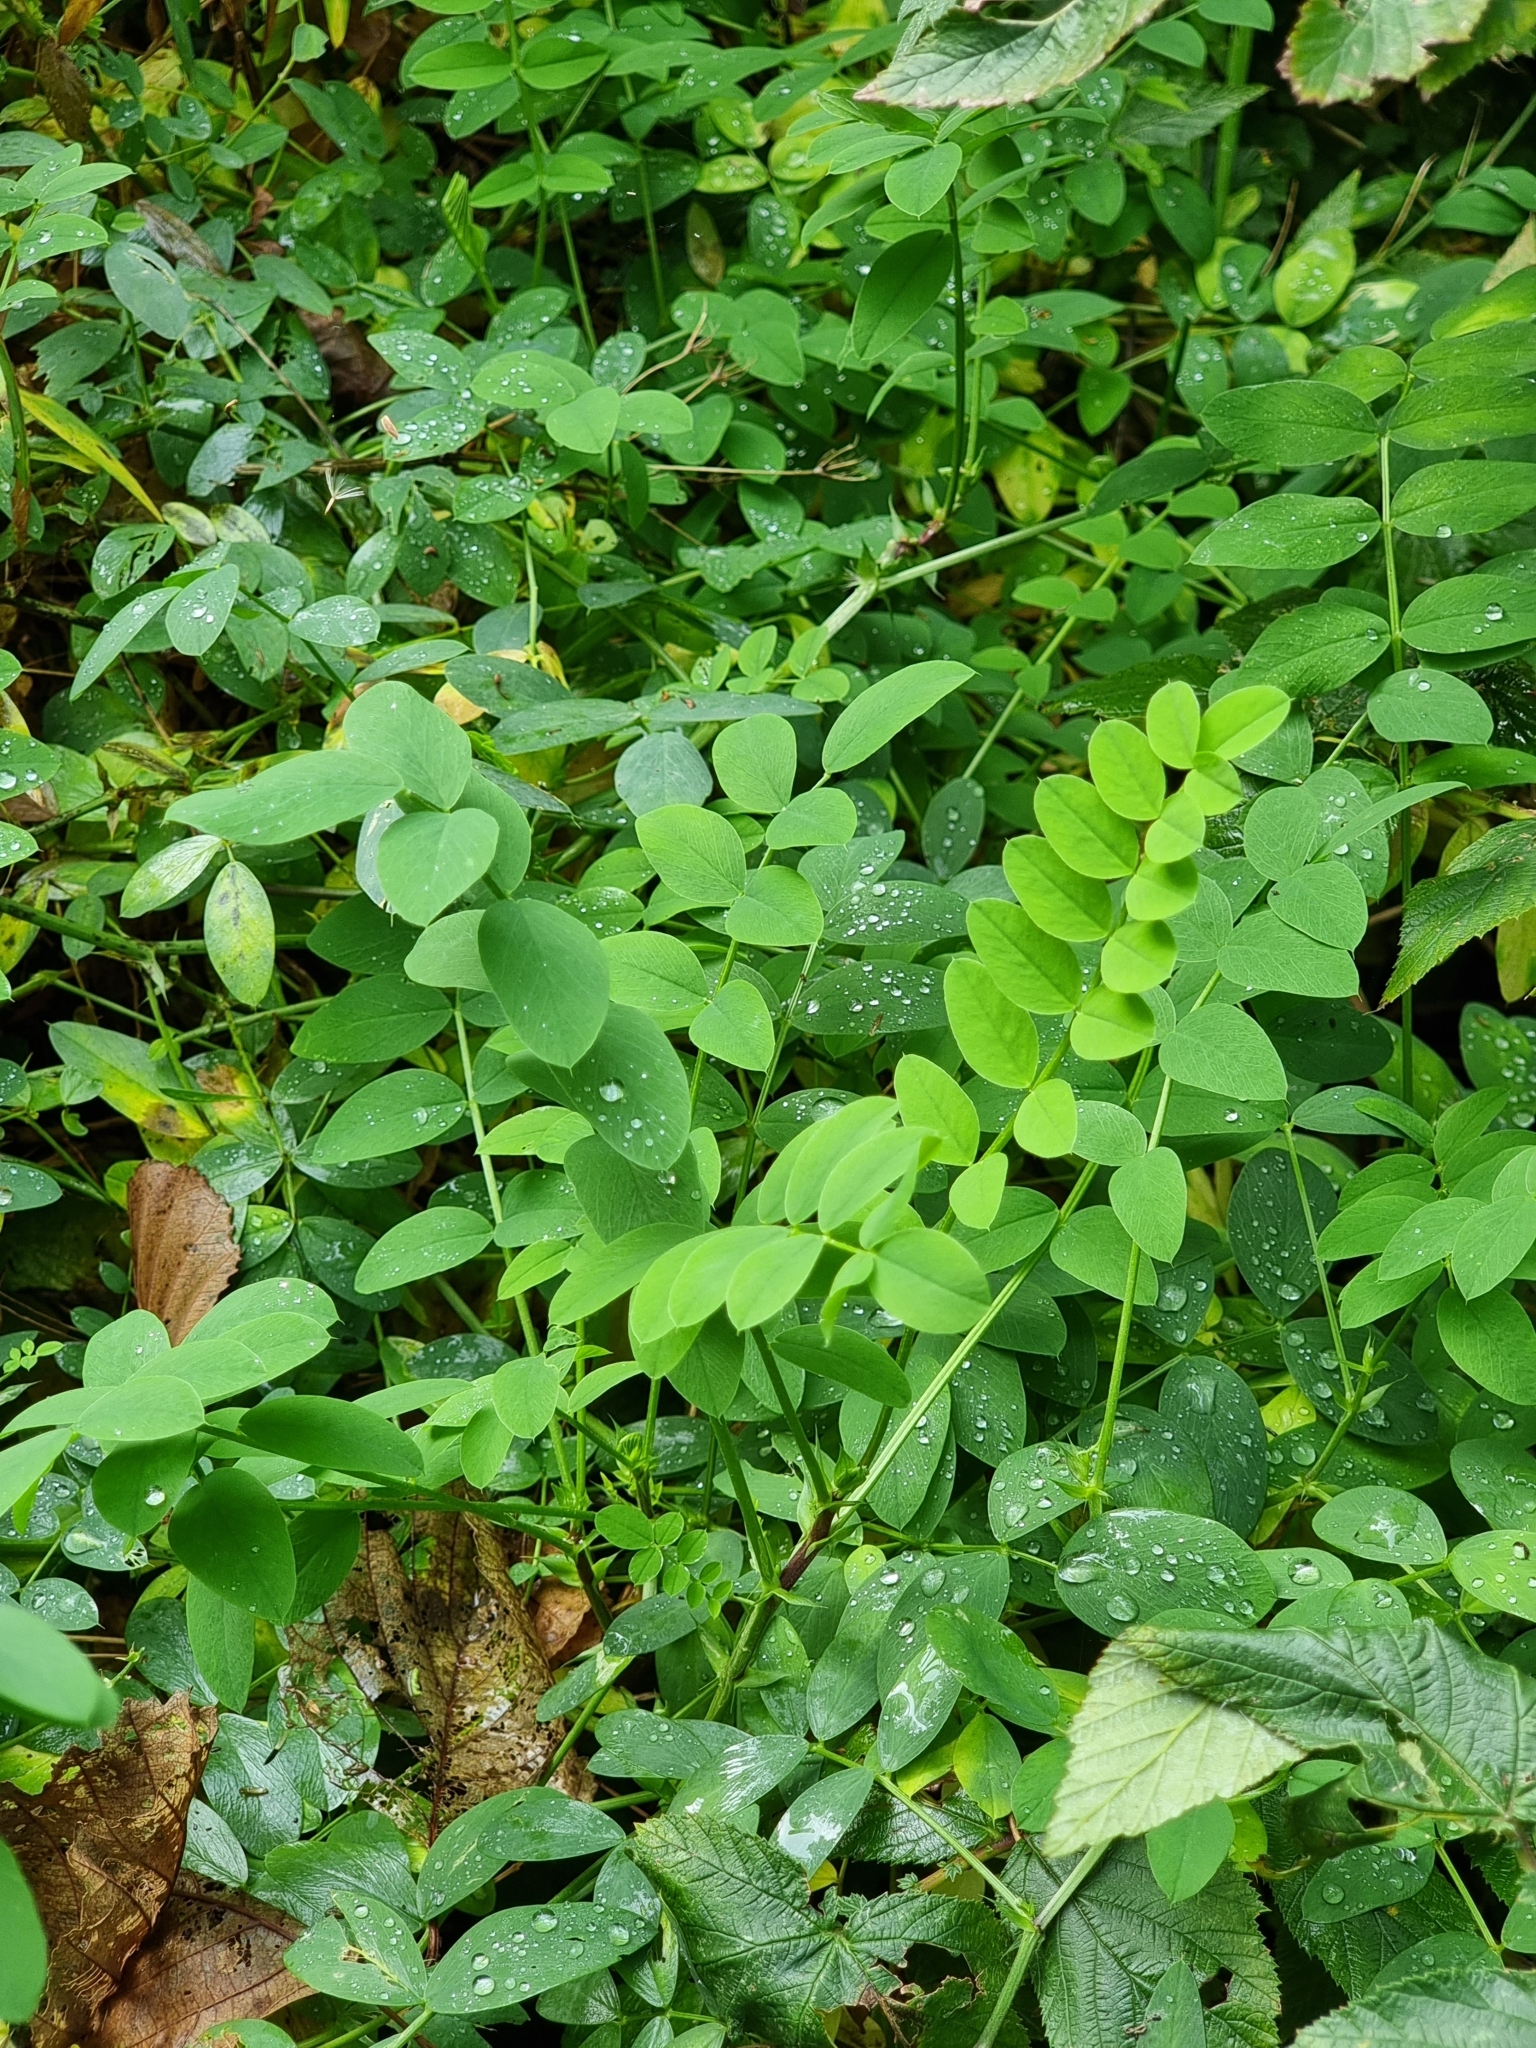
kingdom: Plantae
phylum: Tracheophyta
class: Magnoliopsida
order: Fabales
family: Fabaceae
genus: Galega
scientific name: Galega officinalis
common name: Goat's-rue
